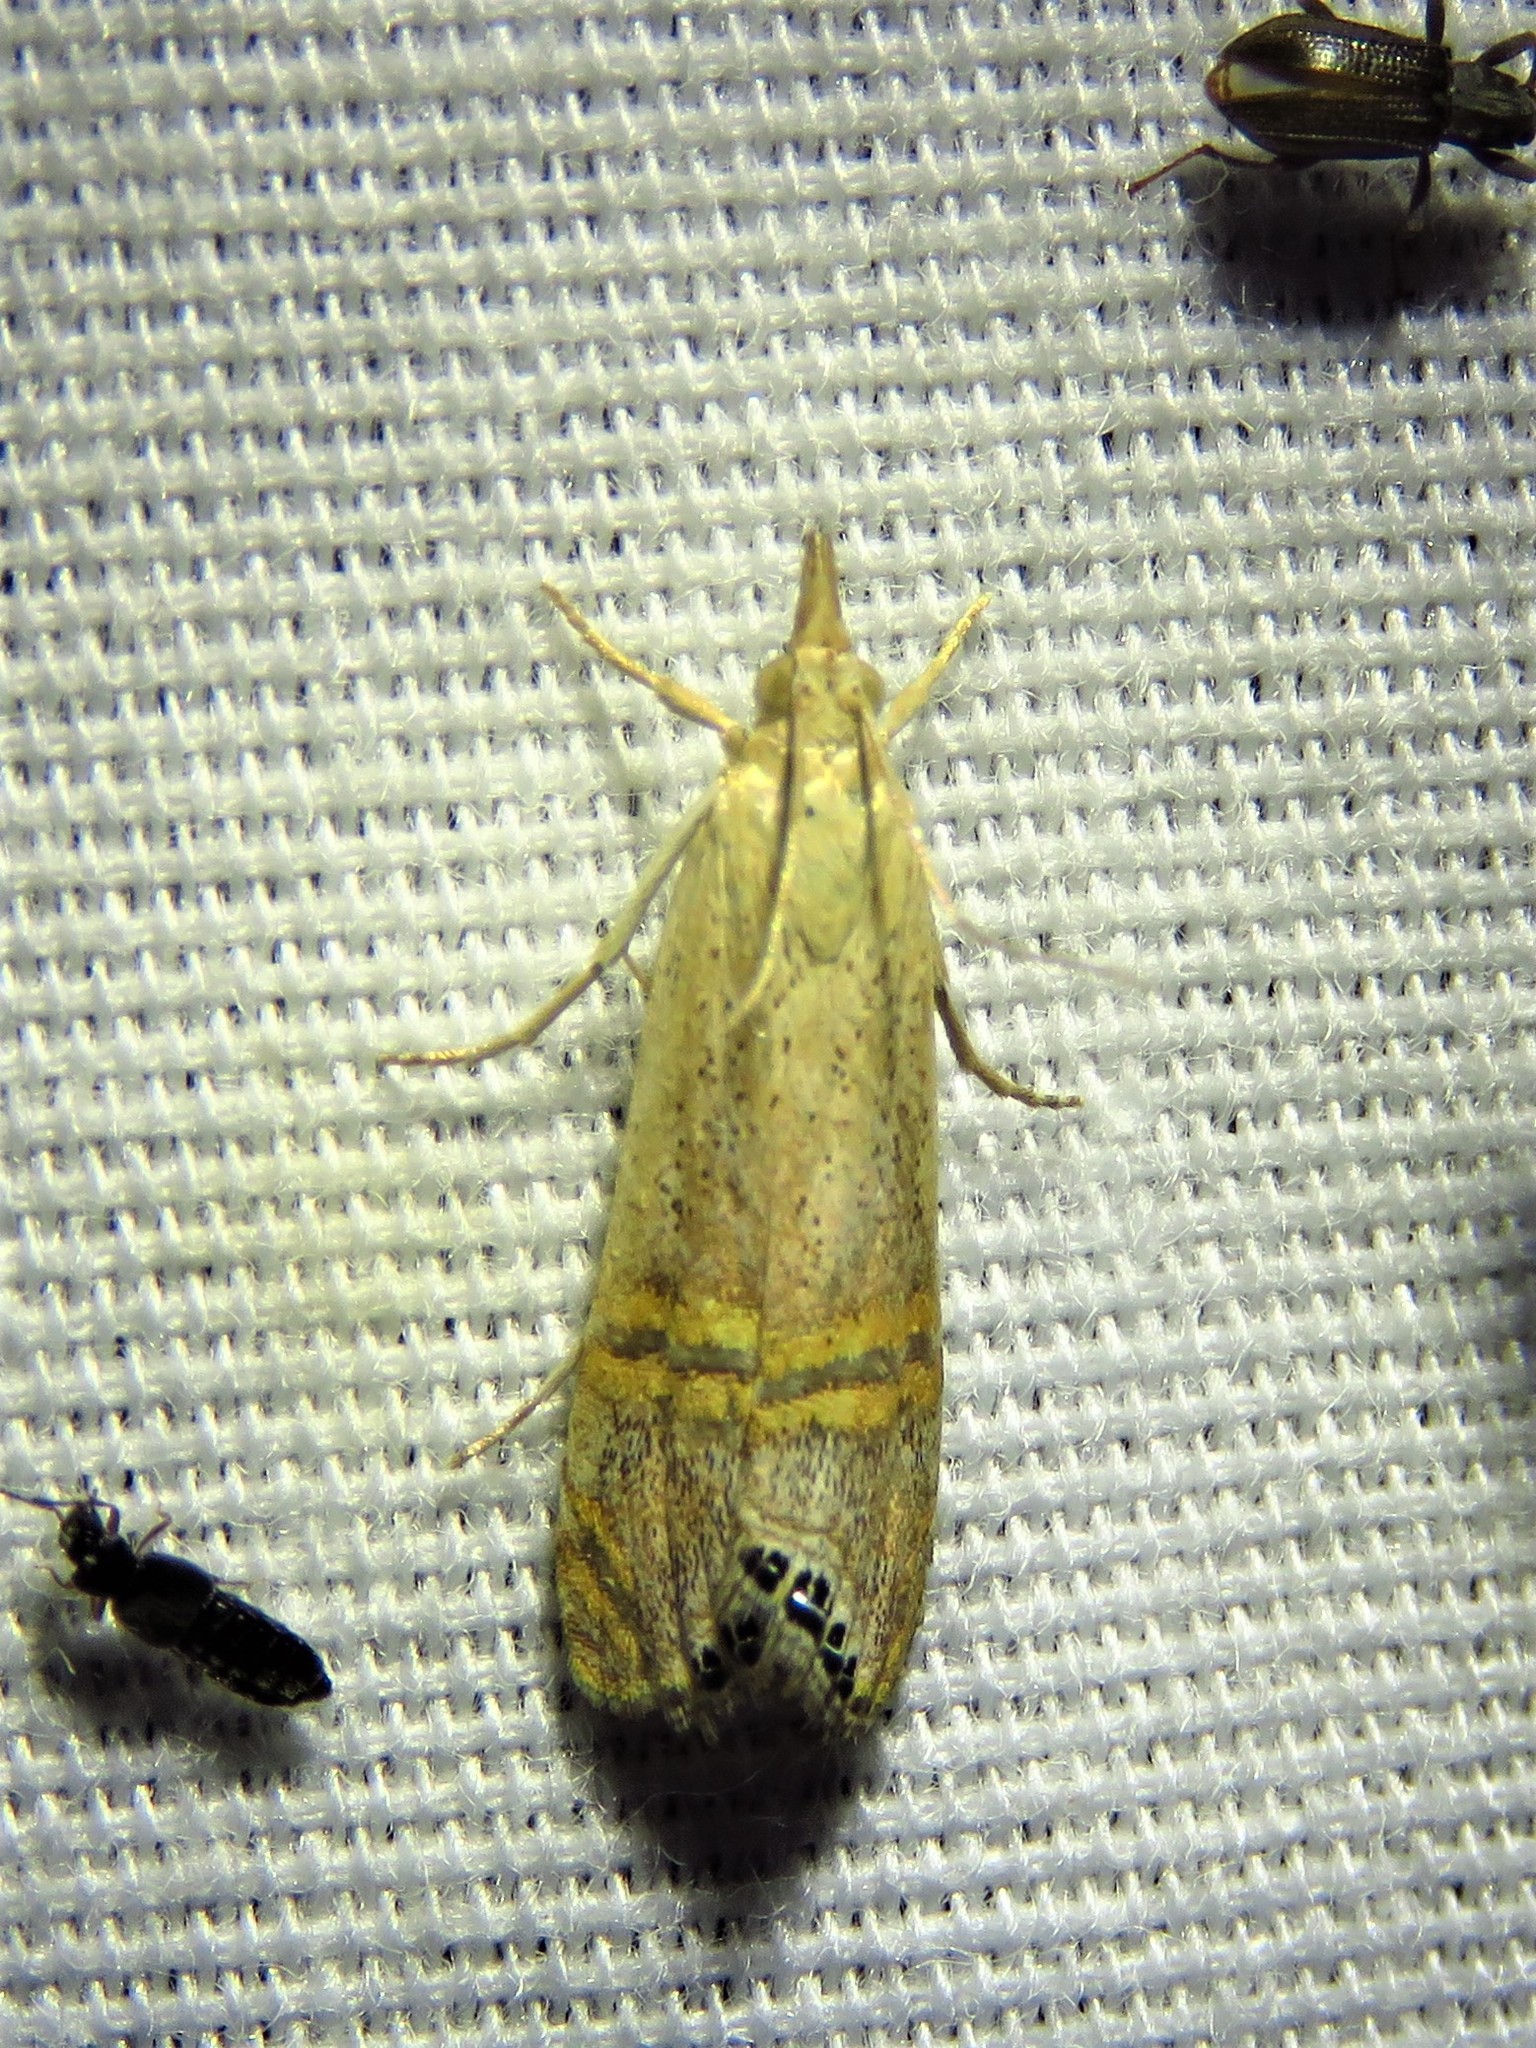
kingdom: Animalia
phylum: Arthropoda
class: Insecta
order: Lepidoptera
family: Crambidae
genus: Euchromius
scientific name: Euchromius ocellea
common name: Necklace veneer moth
